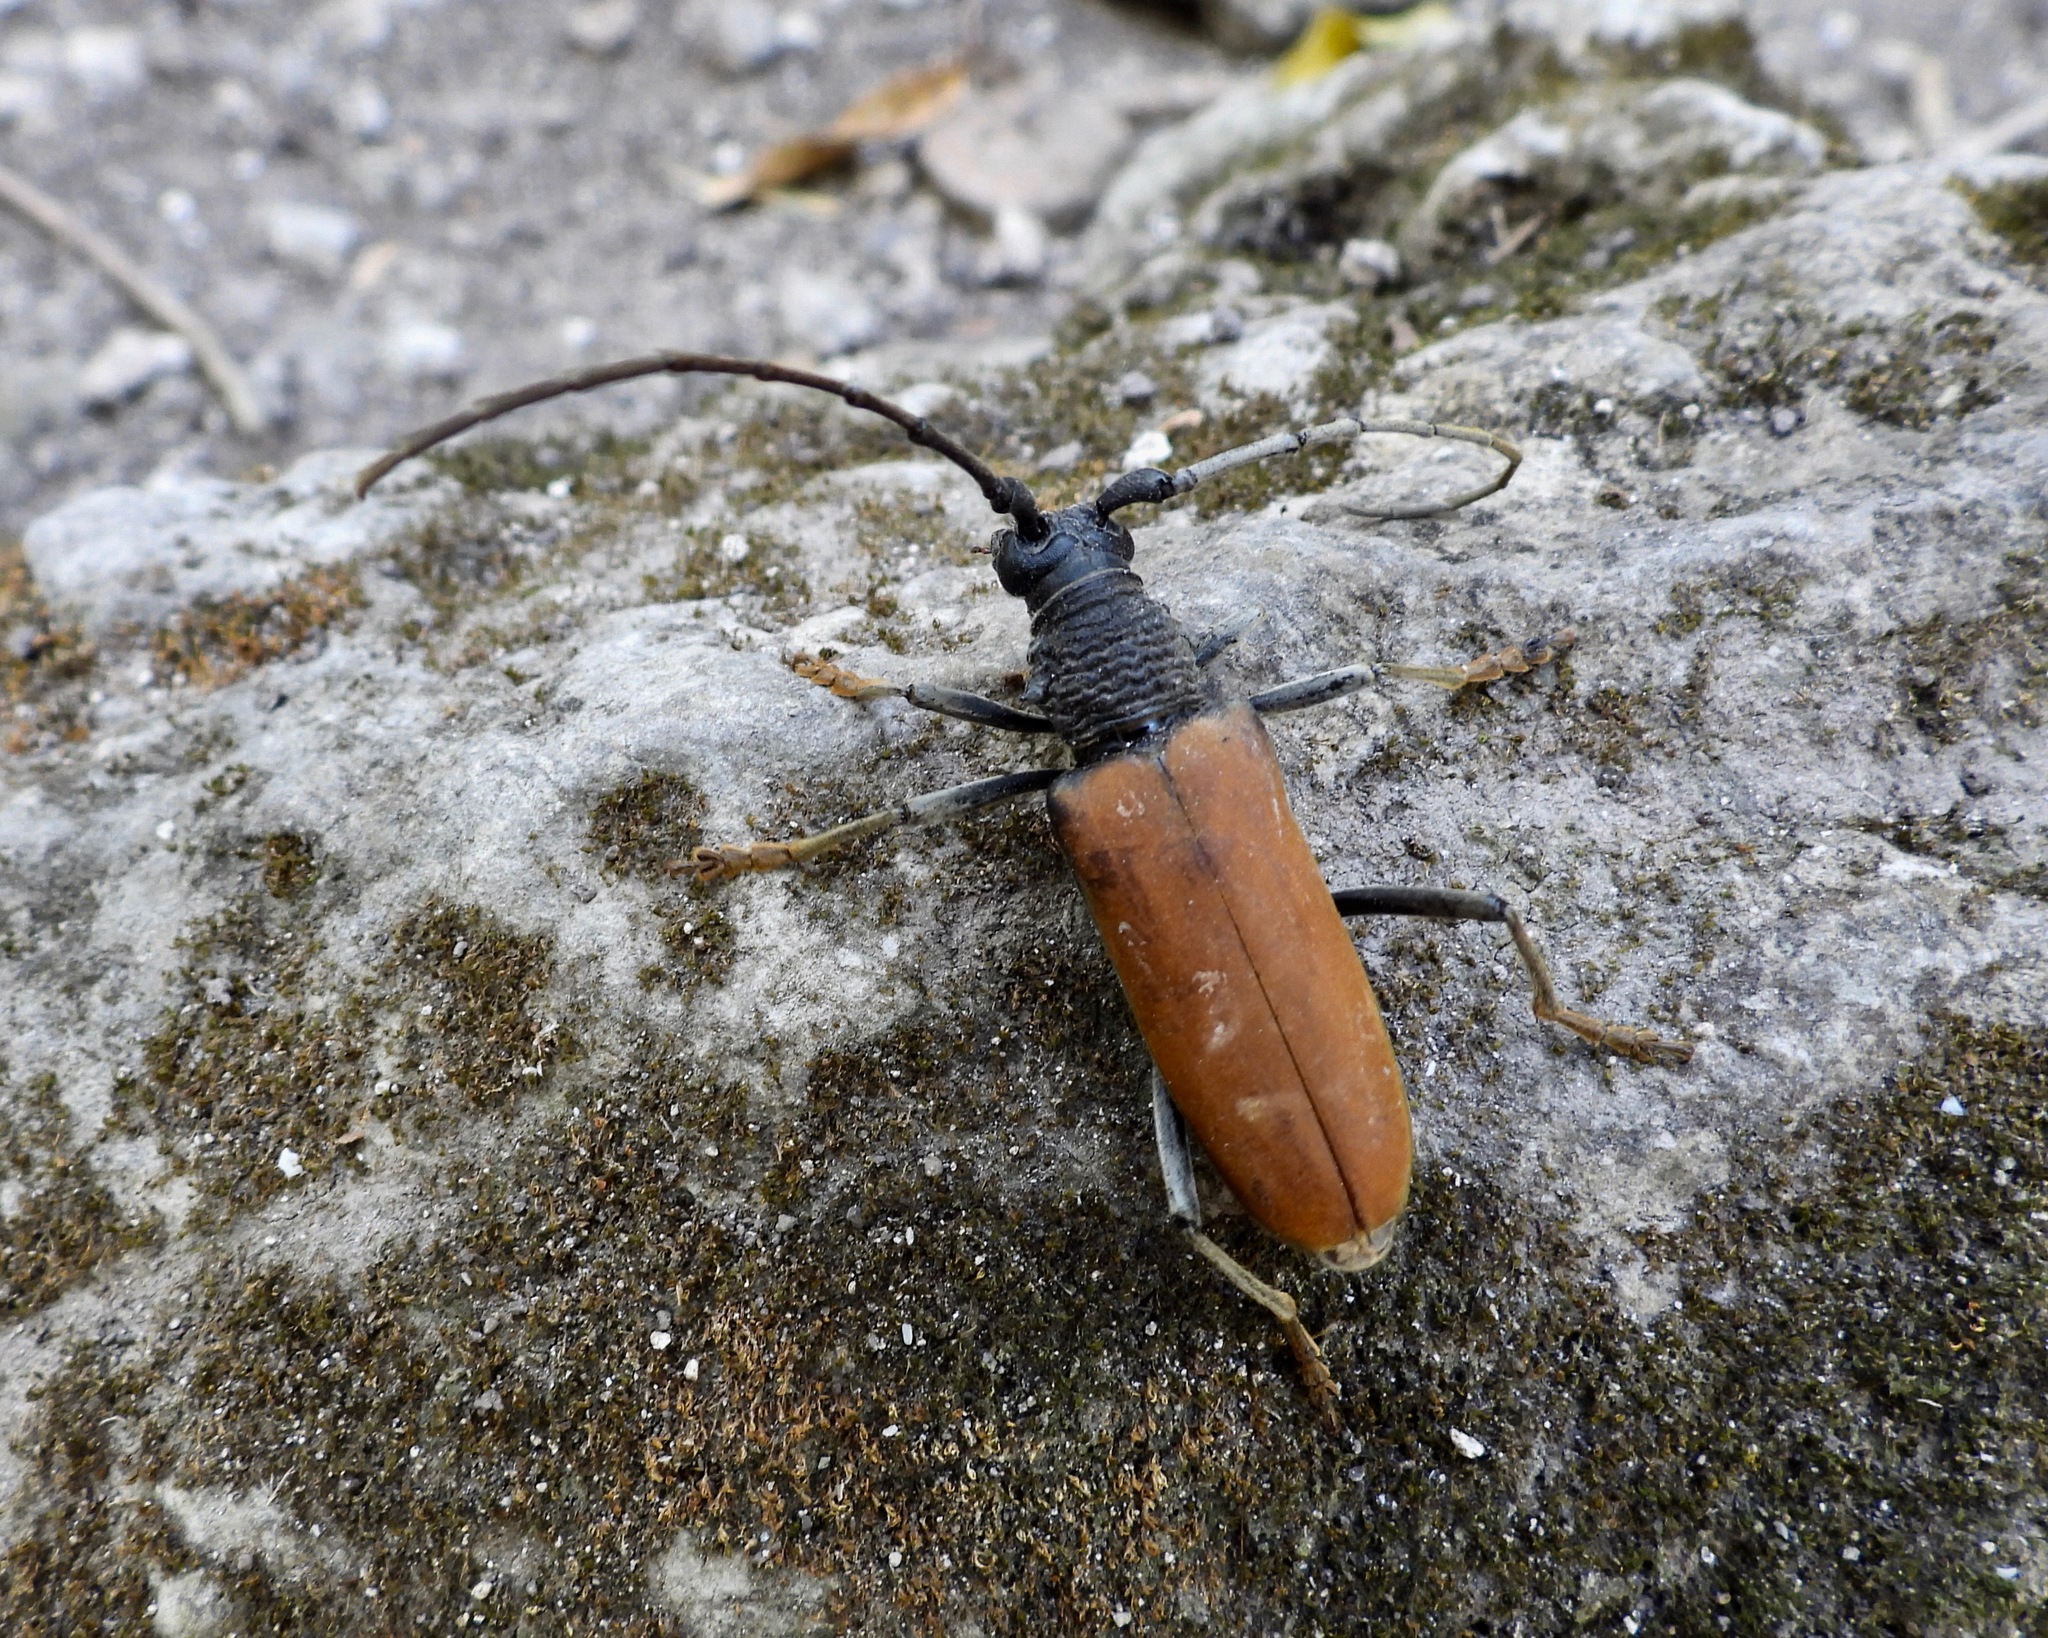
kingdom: Animalia
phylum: Arthropoda
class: Insecta
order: Coleoptera
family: Cerambycidae
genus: Plocaederus
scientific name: Plocaederus yucatecus
